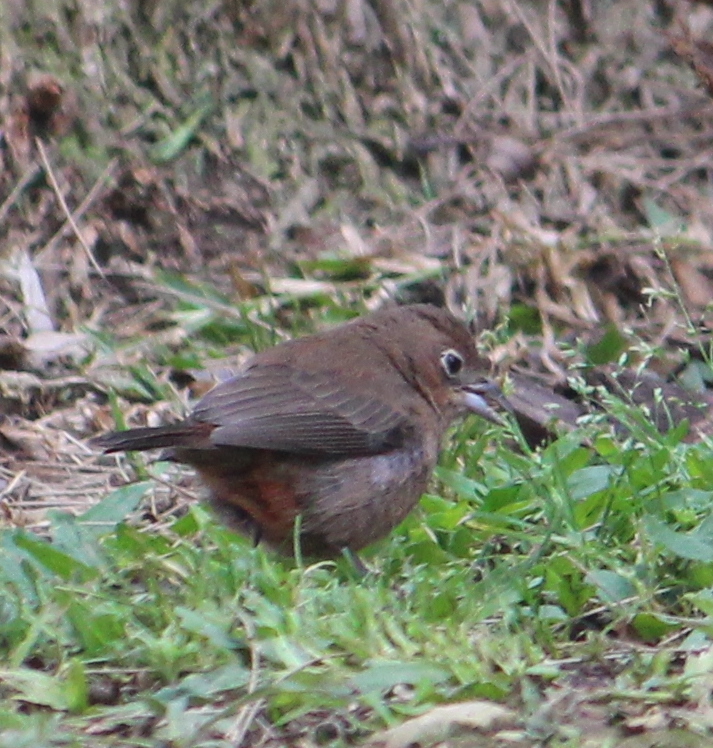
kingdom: Animalia
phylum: Chordata
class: Aves
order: Passeriformes
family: Thraupidae
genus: Coryphospingus
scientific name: Coryphospingus cucullatus
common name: Red pileated finch
